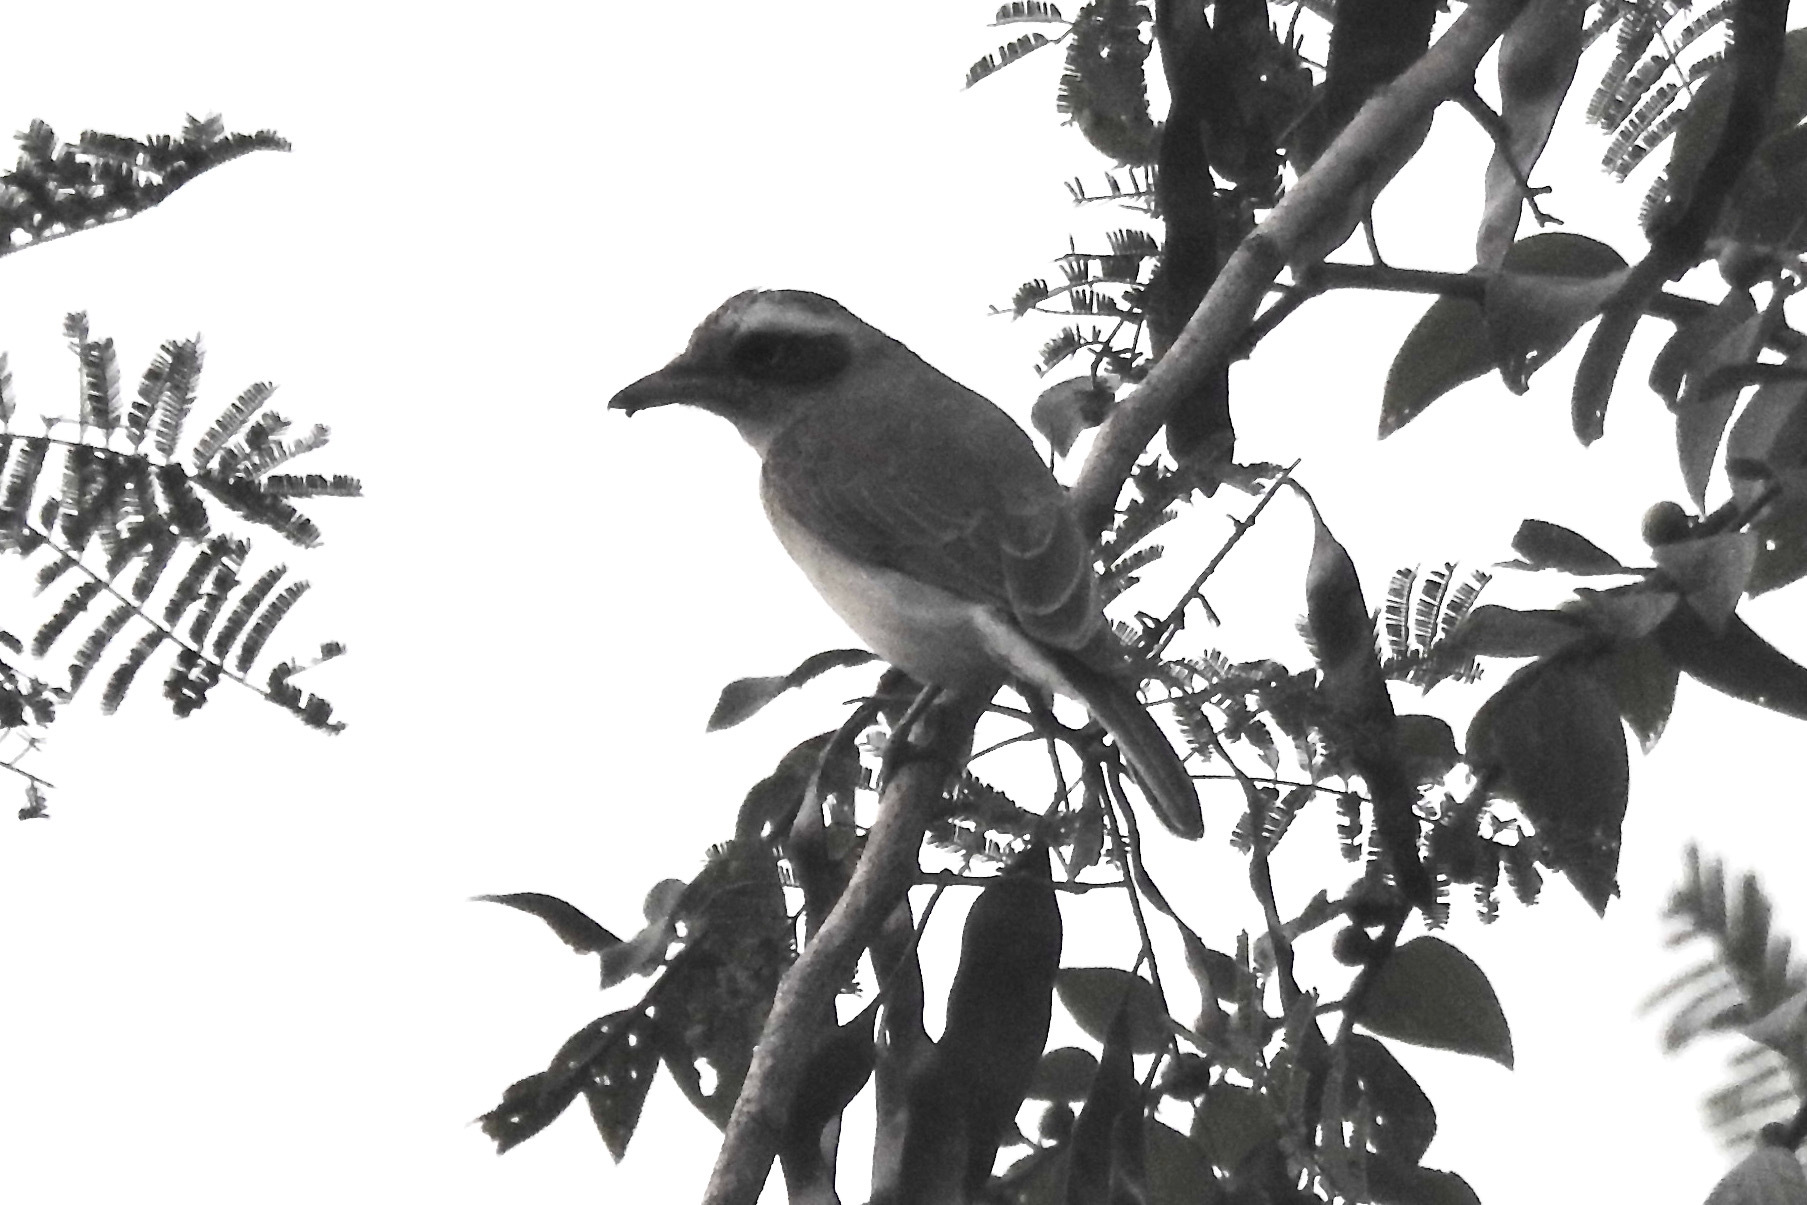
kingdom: Animalia
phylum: Chordata
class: Aves
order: Passeriformes
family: Tephrodornithidae
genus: Tephrodornis
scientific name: Tephrodornis pondicerianus
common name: Common woodshrike
